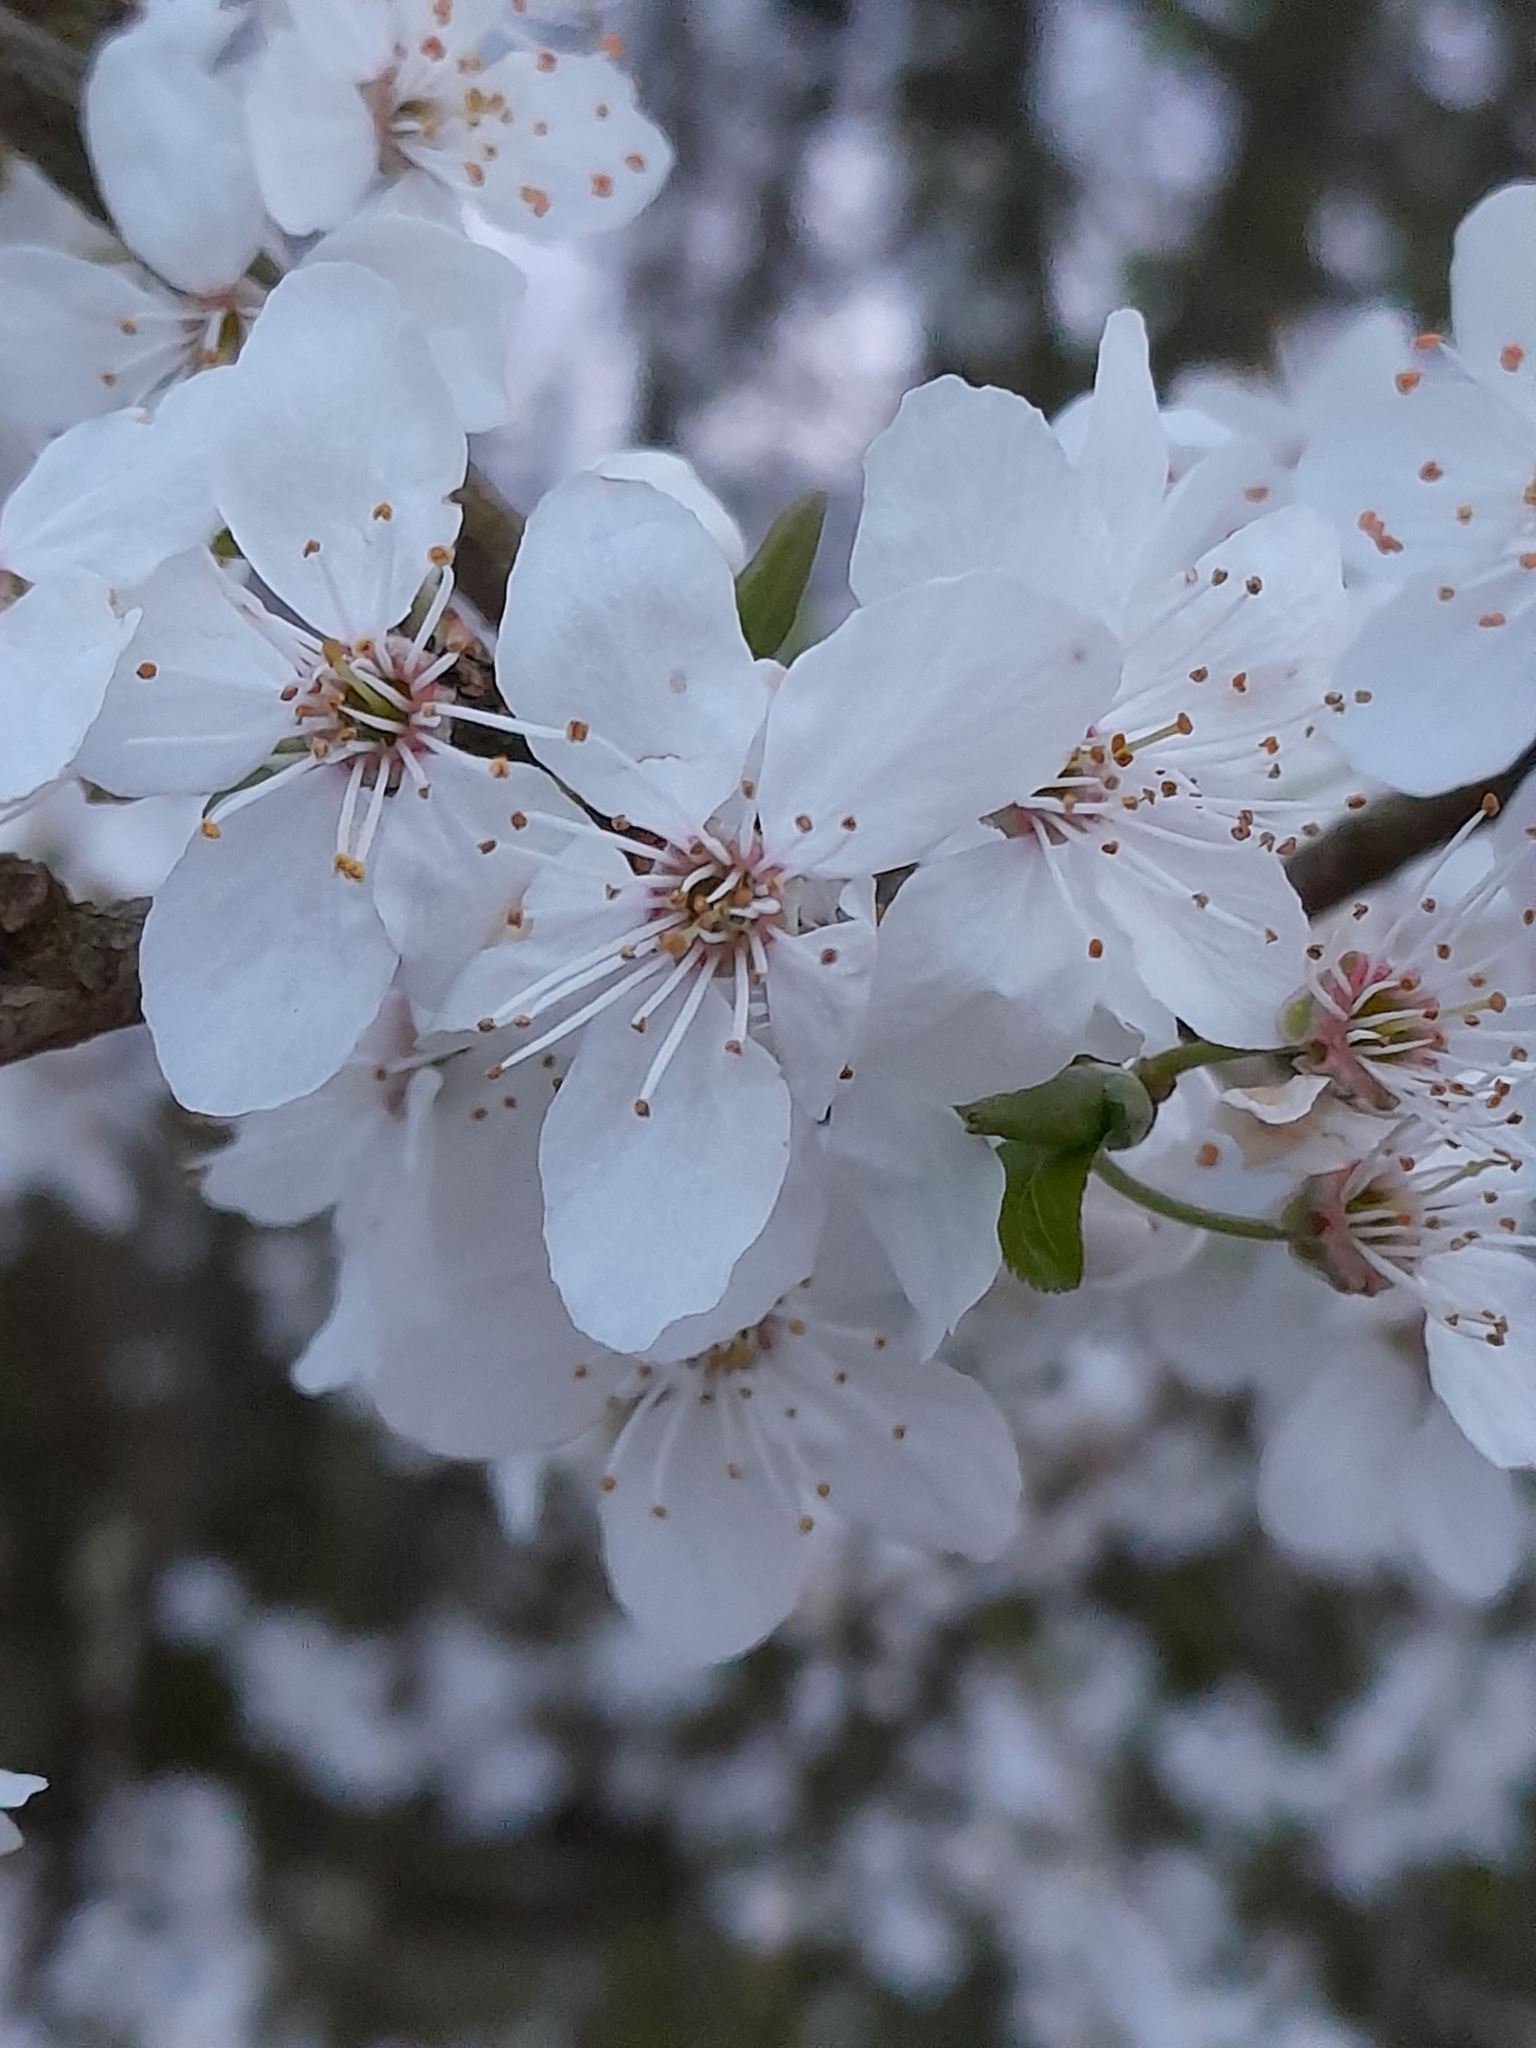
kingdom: Plantae
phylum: Tracheophyta
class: Magnoliopsida
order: Rosales
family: Rosaceae
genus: Prunus
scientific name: Prunus cerasifera
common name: Cherry plum
